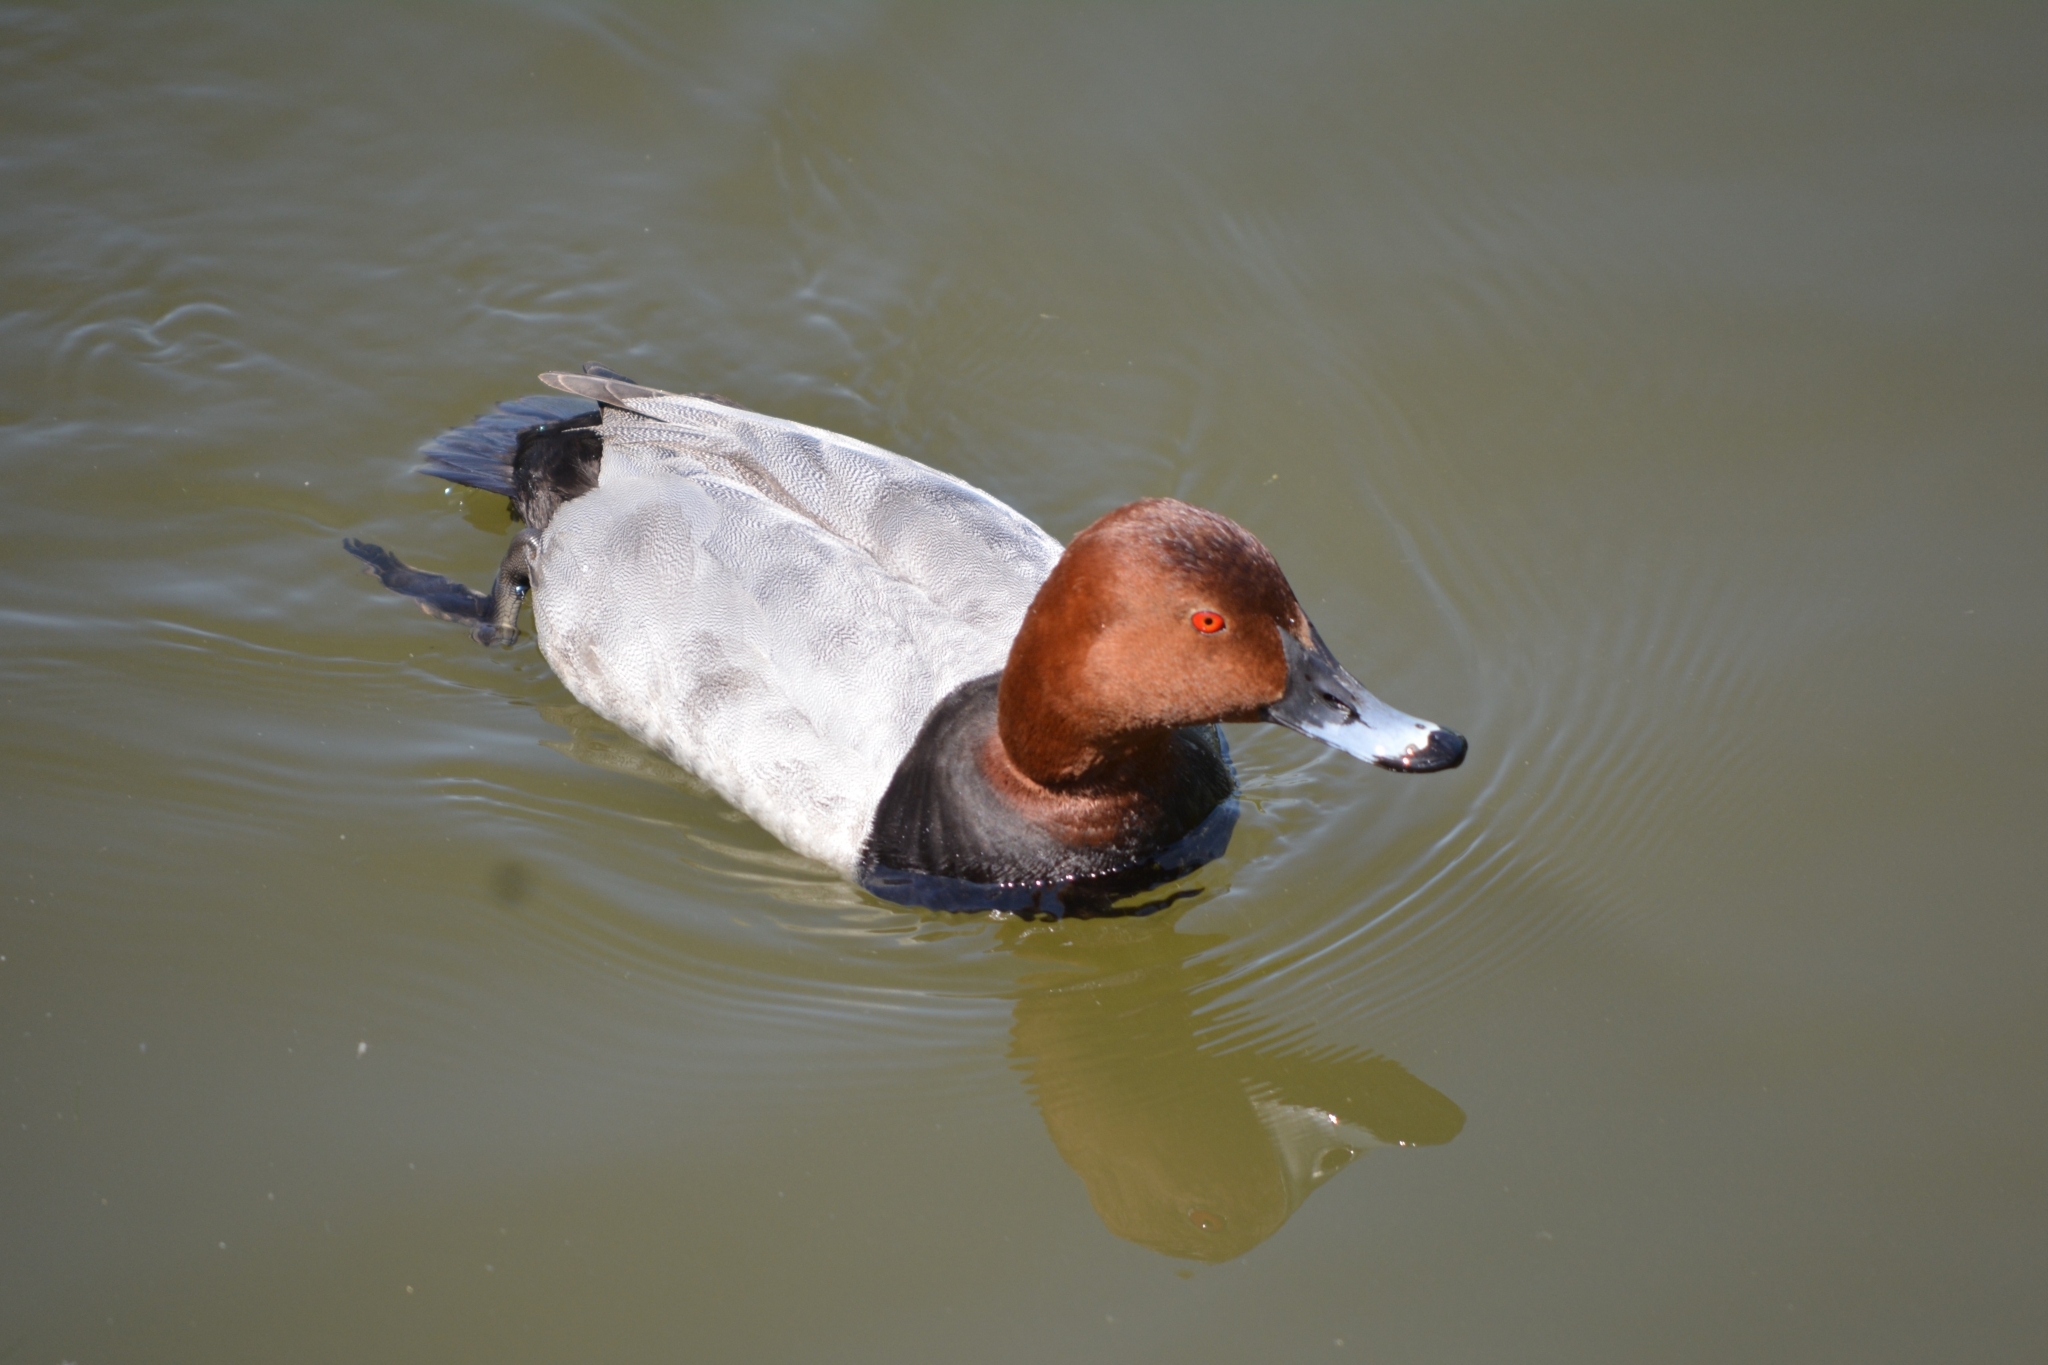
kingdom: Animalia
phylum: Chordata
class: Aves
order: Anseriformes
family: Anatidae
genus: Aythya
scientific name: Aythya ferina
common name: Common pochard
